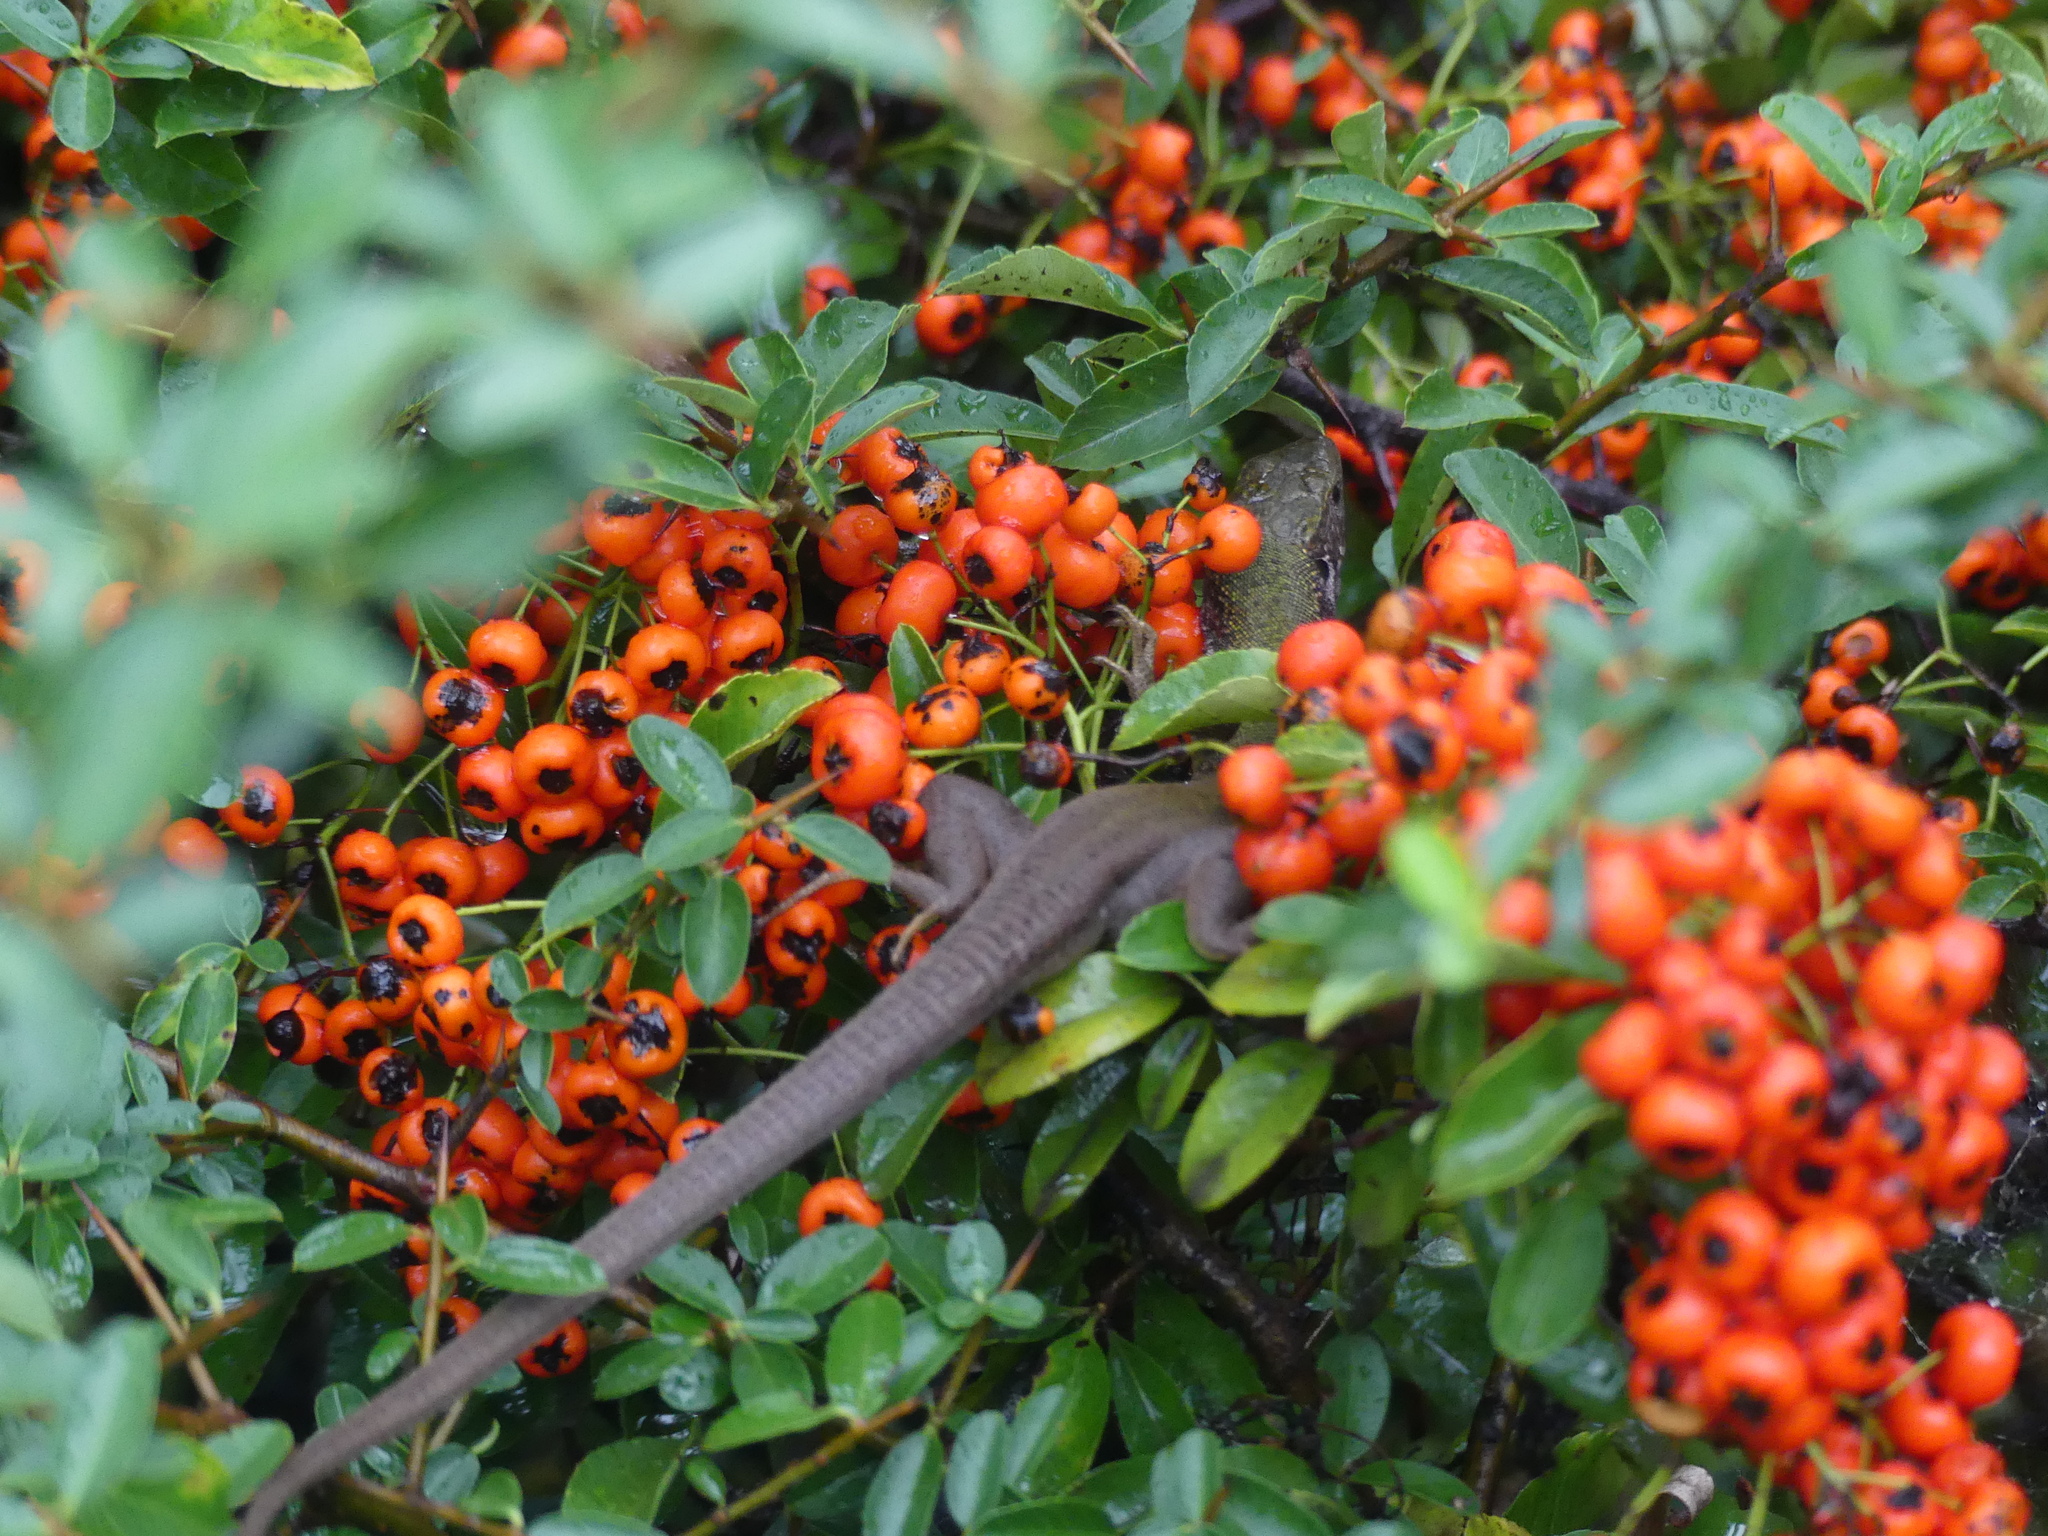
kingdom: Animalia
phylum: Chordata
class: Squamata
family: Lacertidae
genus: Lacerta
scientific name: Lacerta viridis
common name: European green lizard
